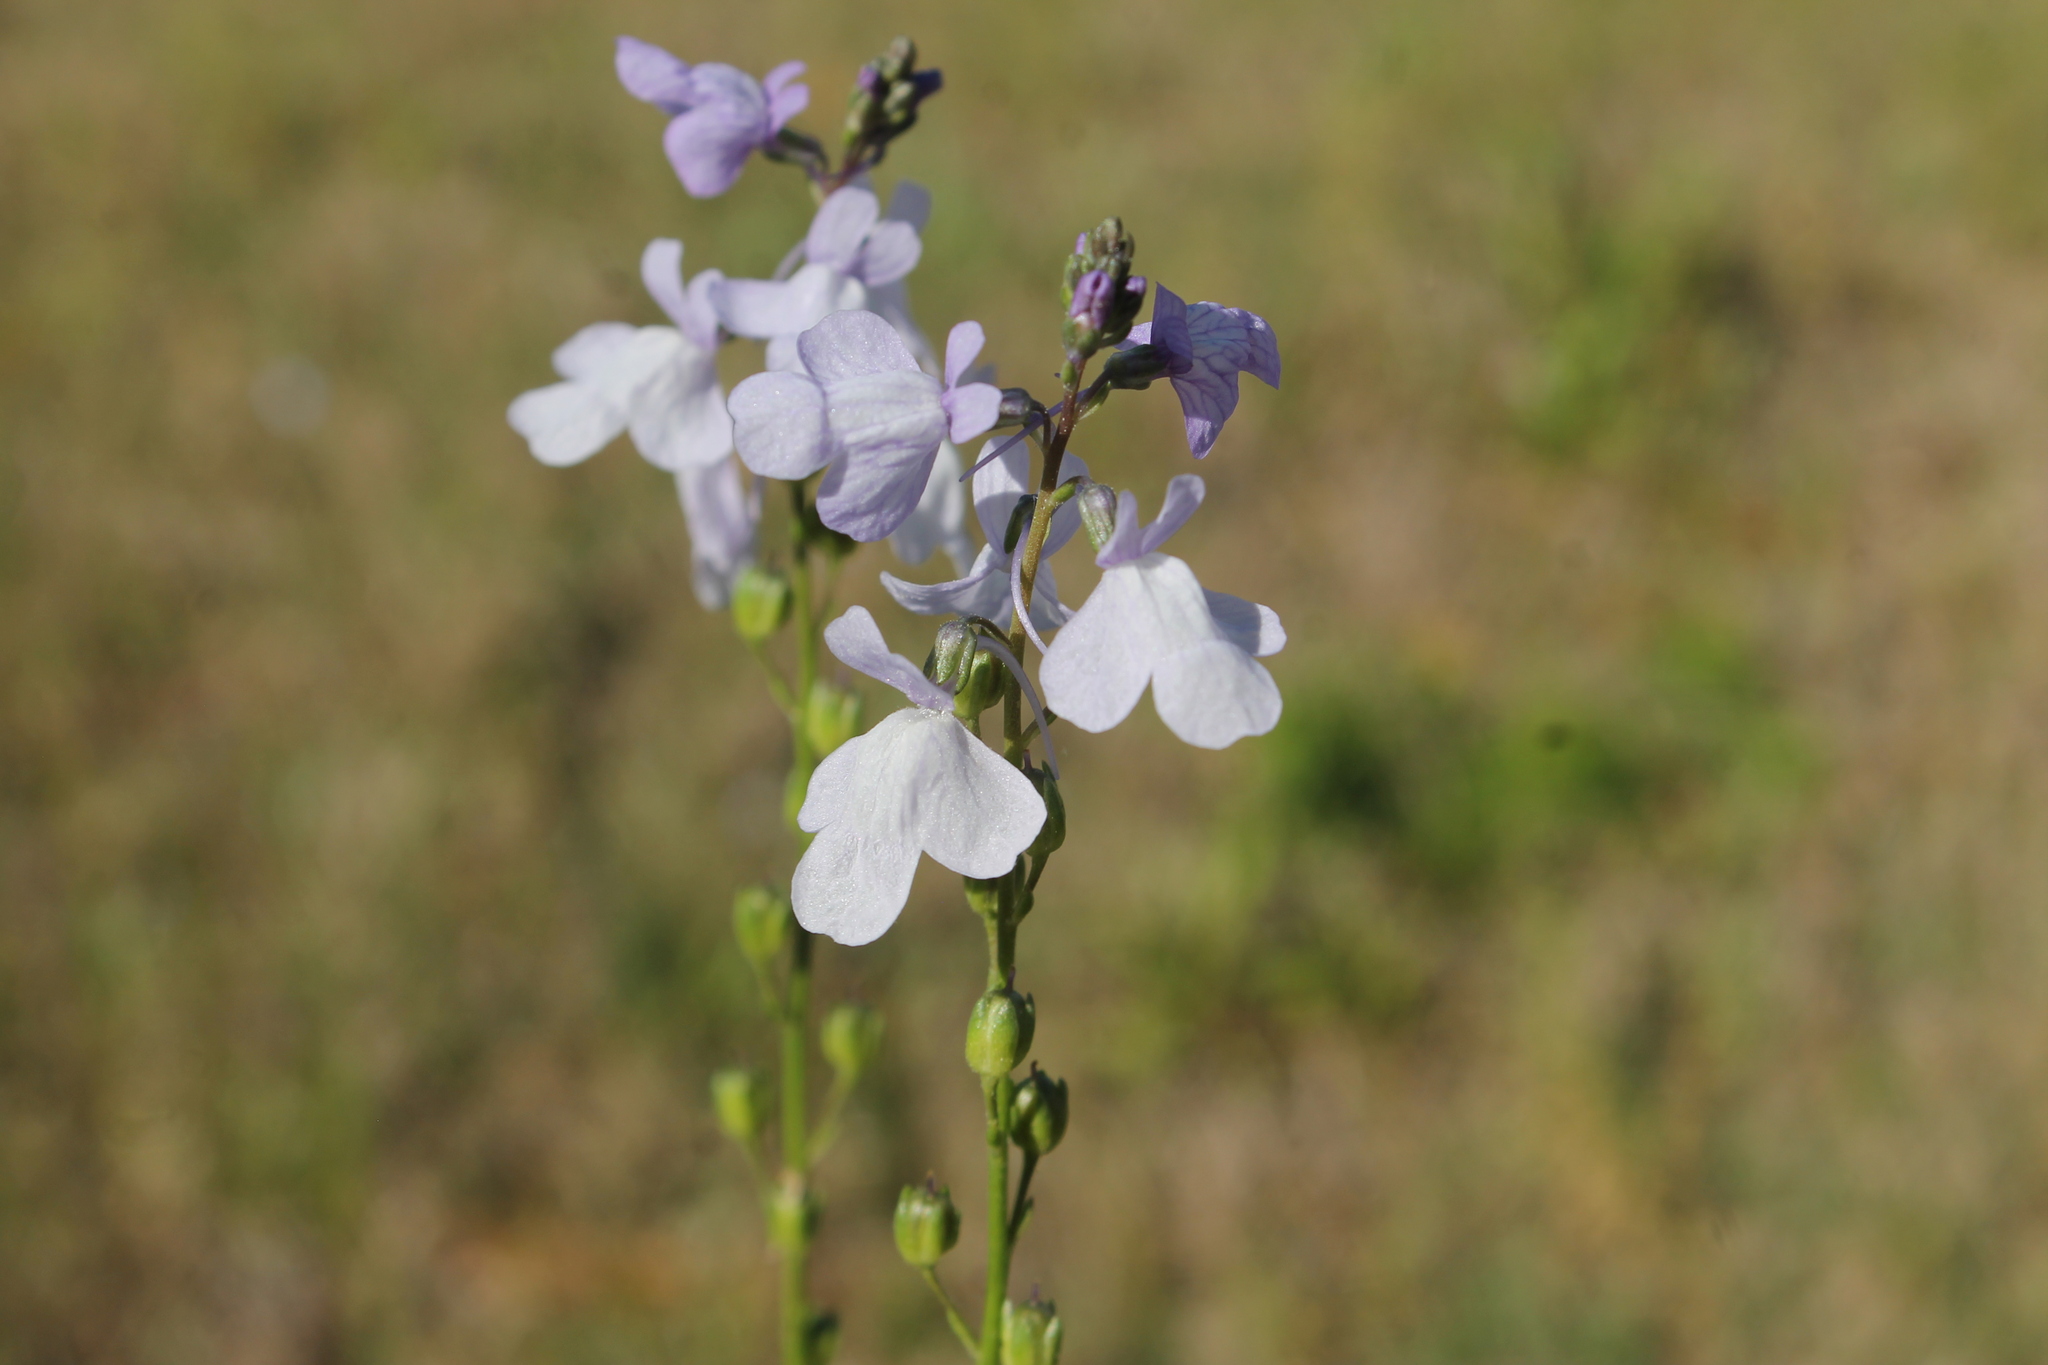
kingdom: Plantae
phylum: Tracheophyta
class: Magnoliopsida
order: Lamiales
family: Plantaginaceae
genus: Nuttallanthus
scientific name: Nuttallanthus texanus
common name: Texas toadflax
